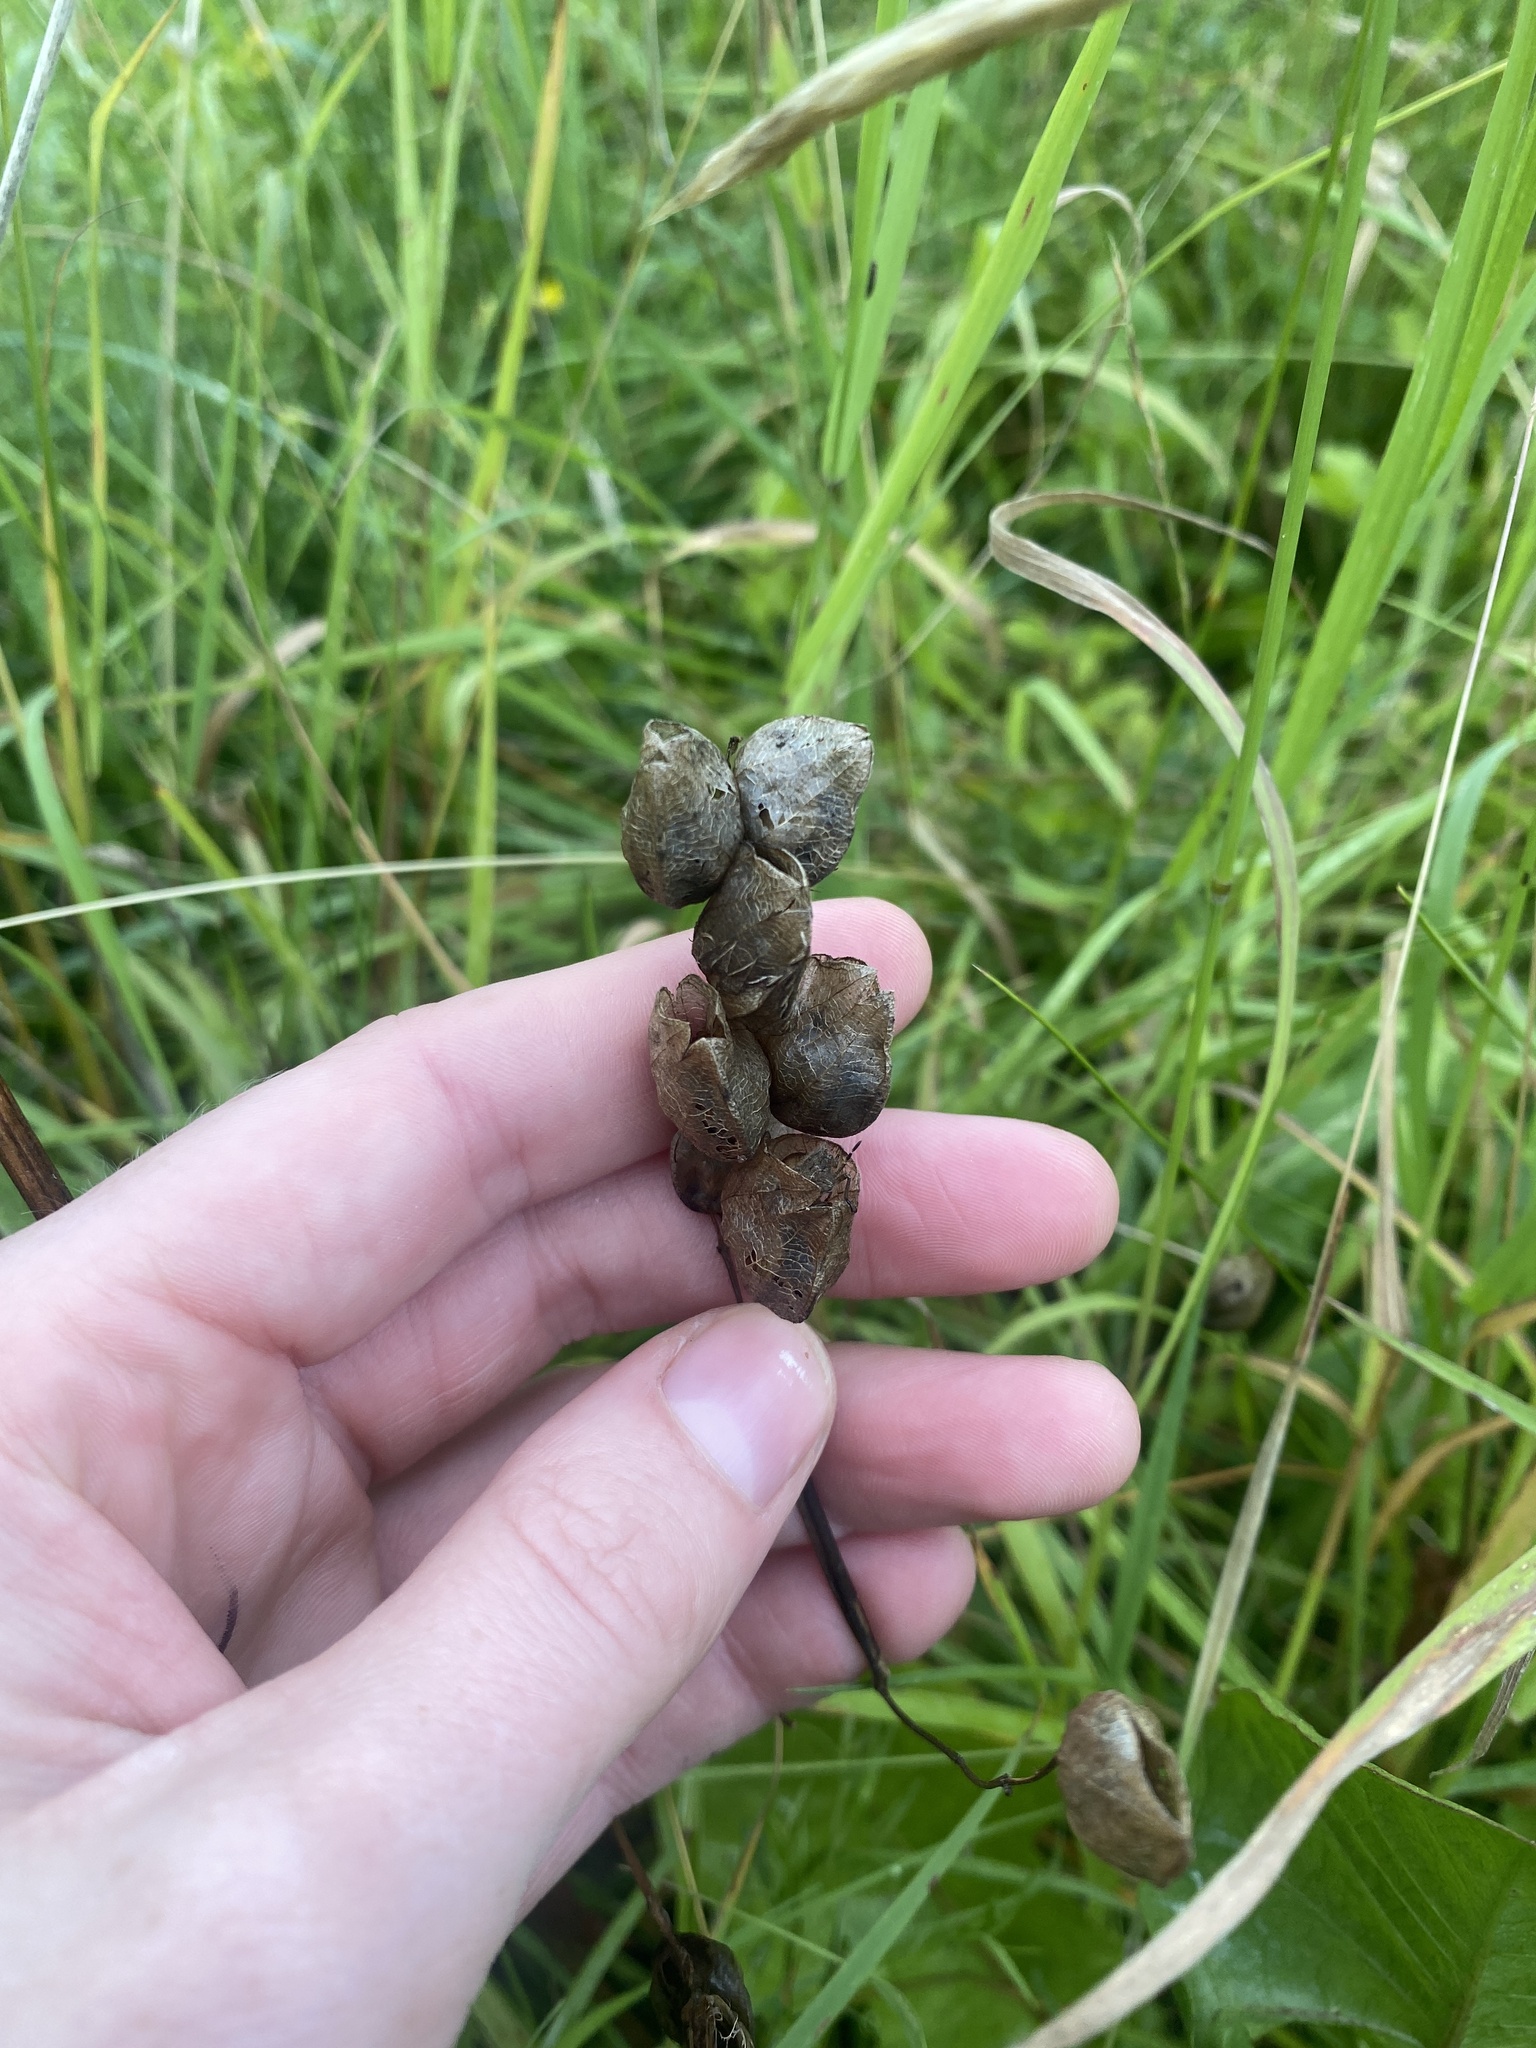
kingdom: Plantae
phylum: Tracheophyta
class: Magnoliopsida
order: Lamiales
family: Orobanchaceae
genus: Rhinanthus
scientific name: Rhinanthus minor
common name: Yellow-rattle
